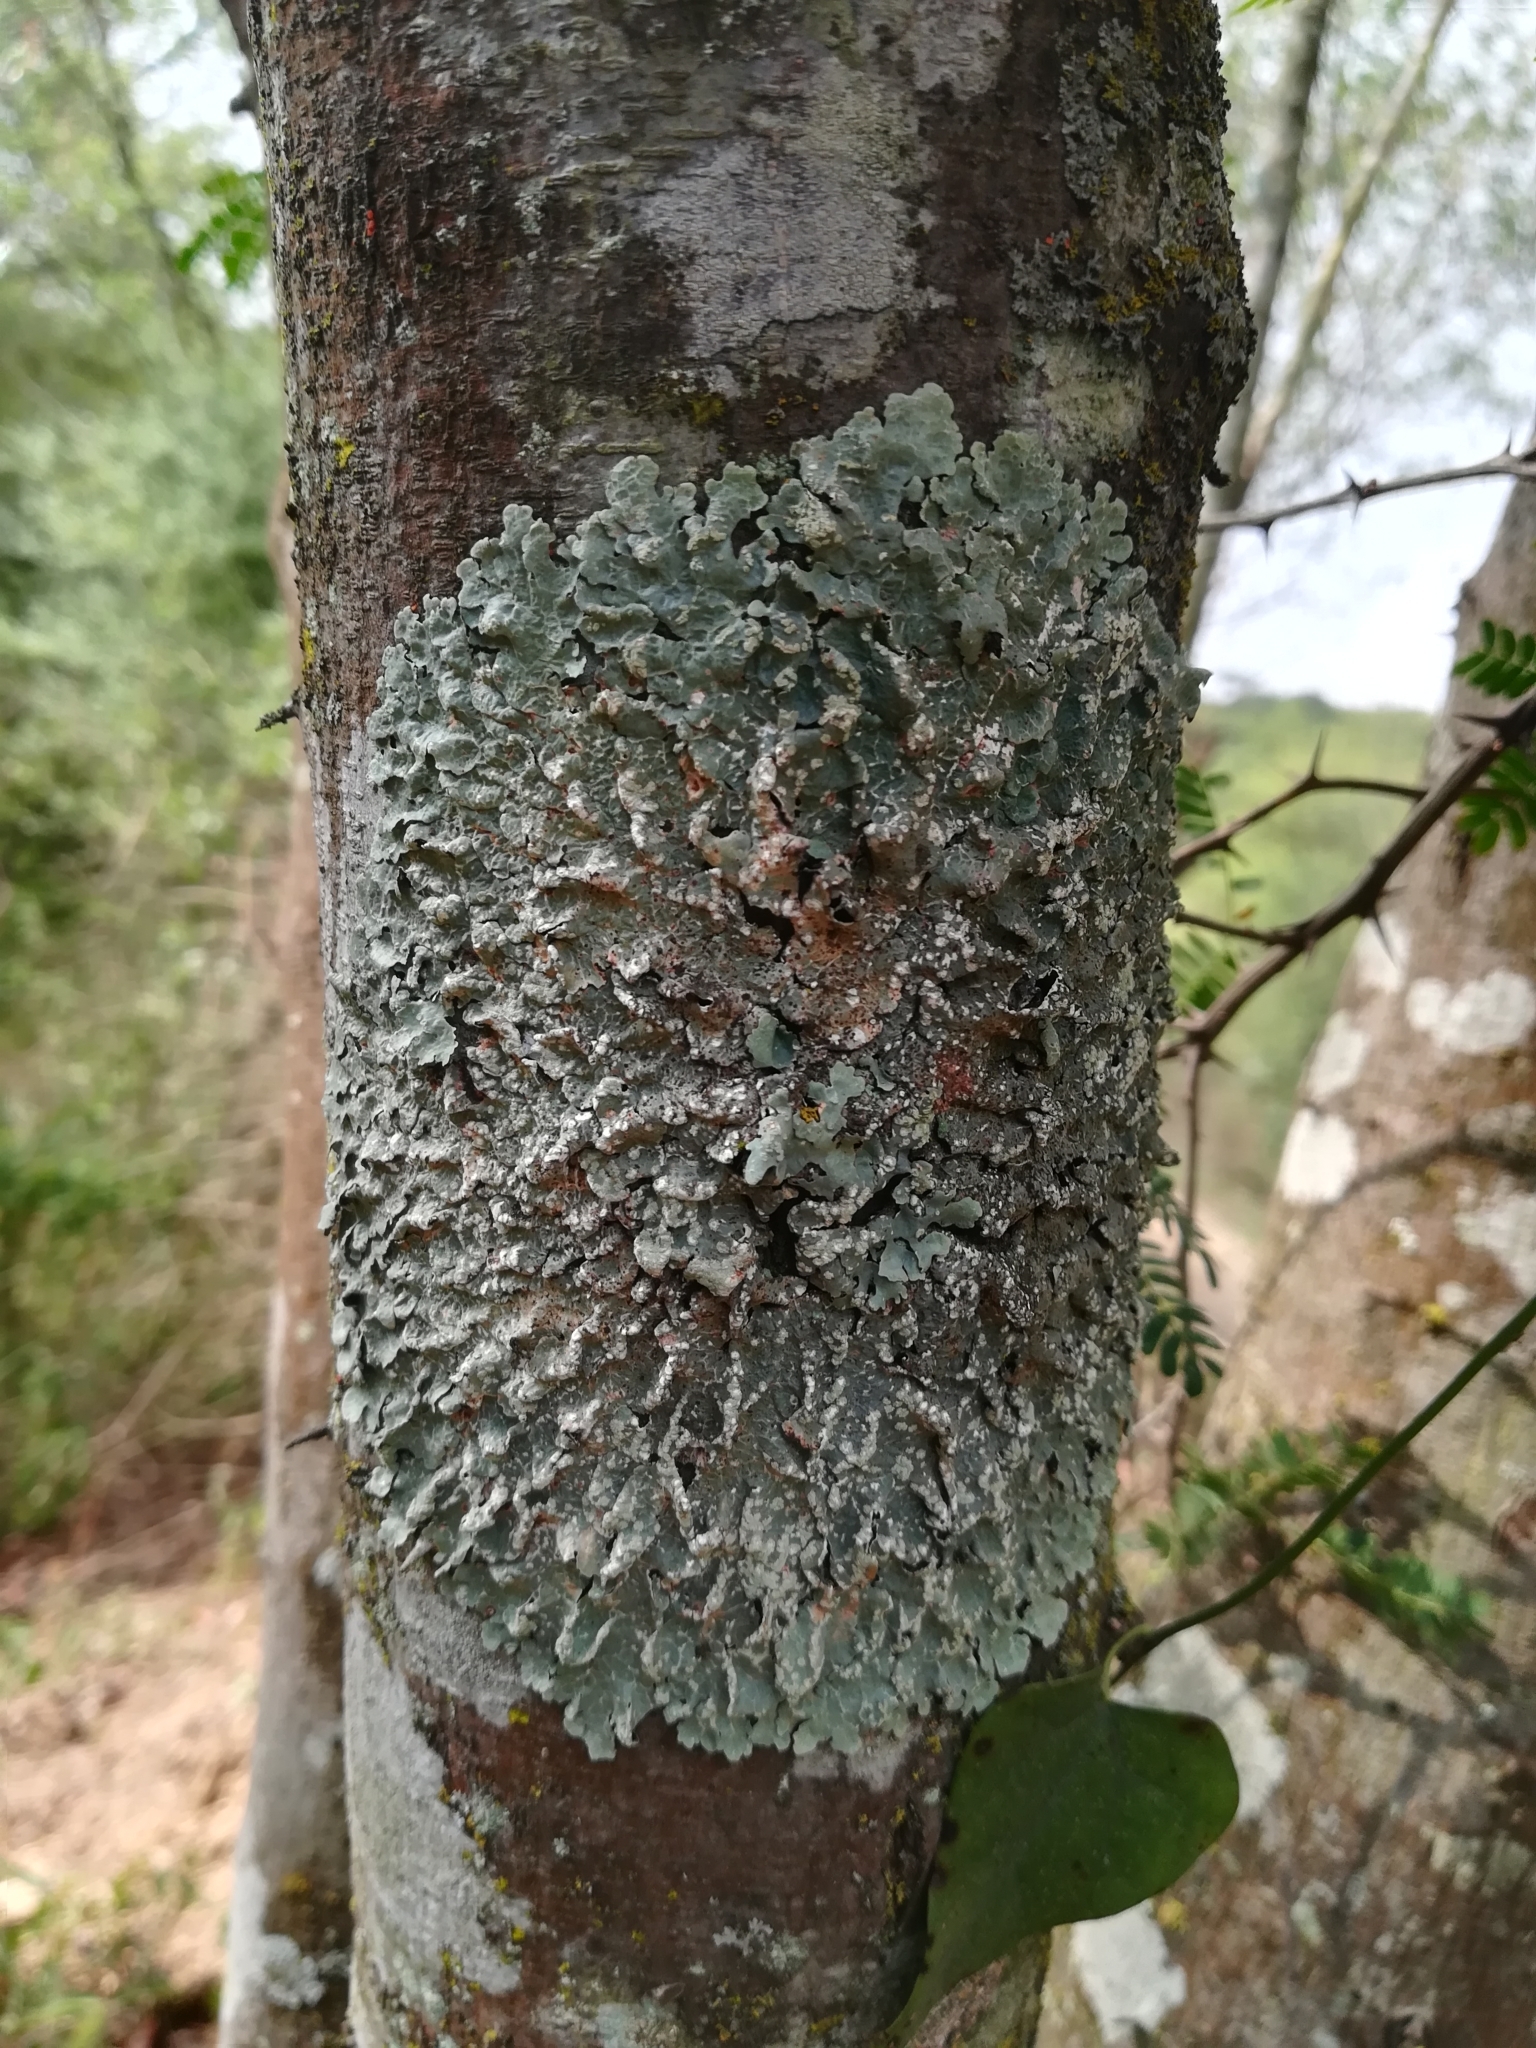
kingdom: Fungi
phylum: Ascomycota
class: Lecanoromycetes
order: Lecanorales
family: Parmeliaceae
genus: Crespoa
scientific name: Crespoa crozalsiana
